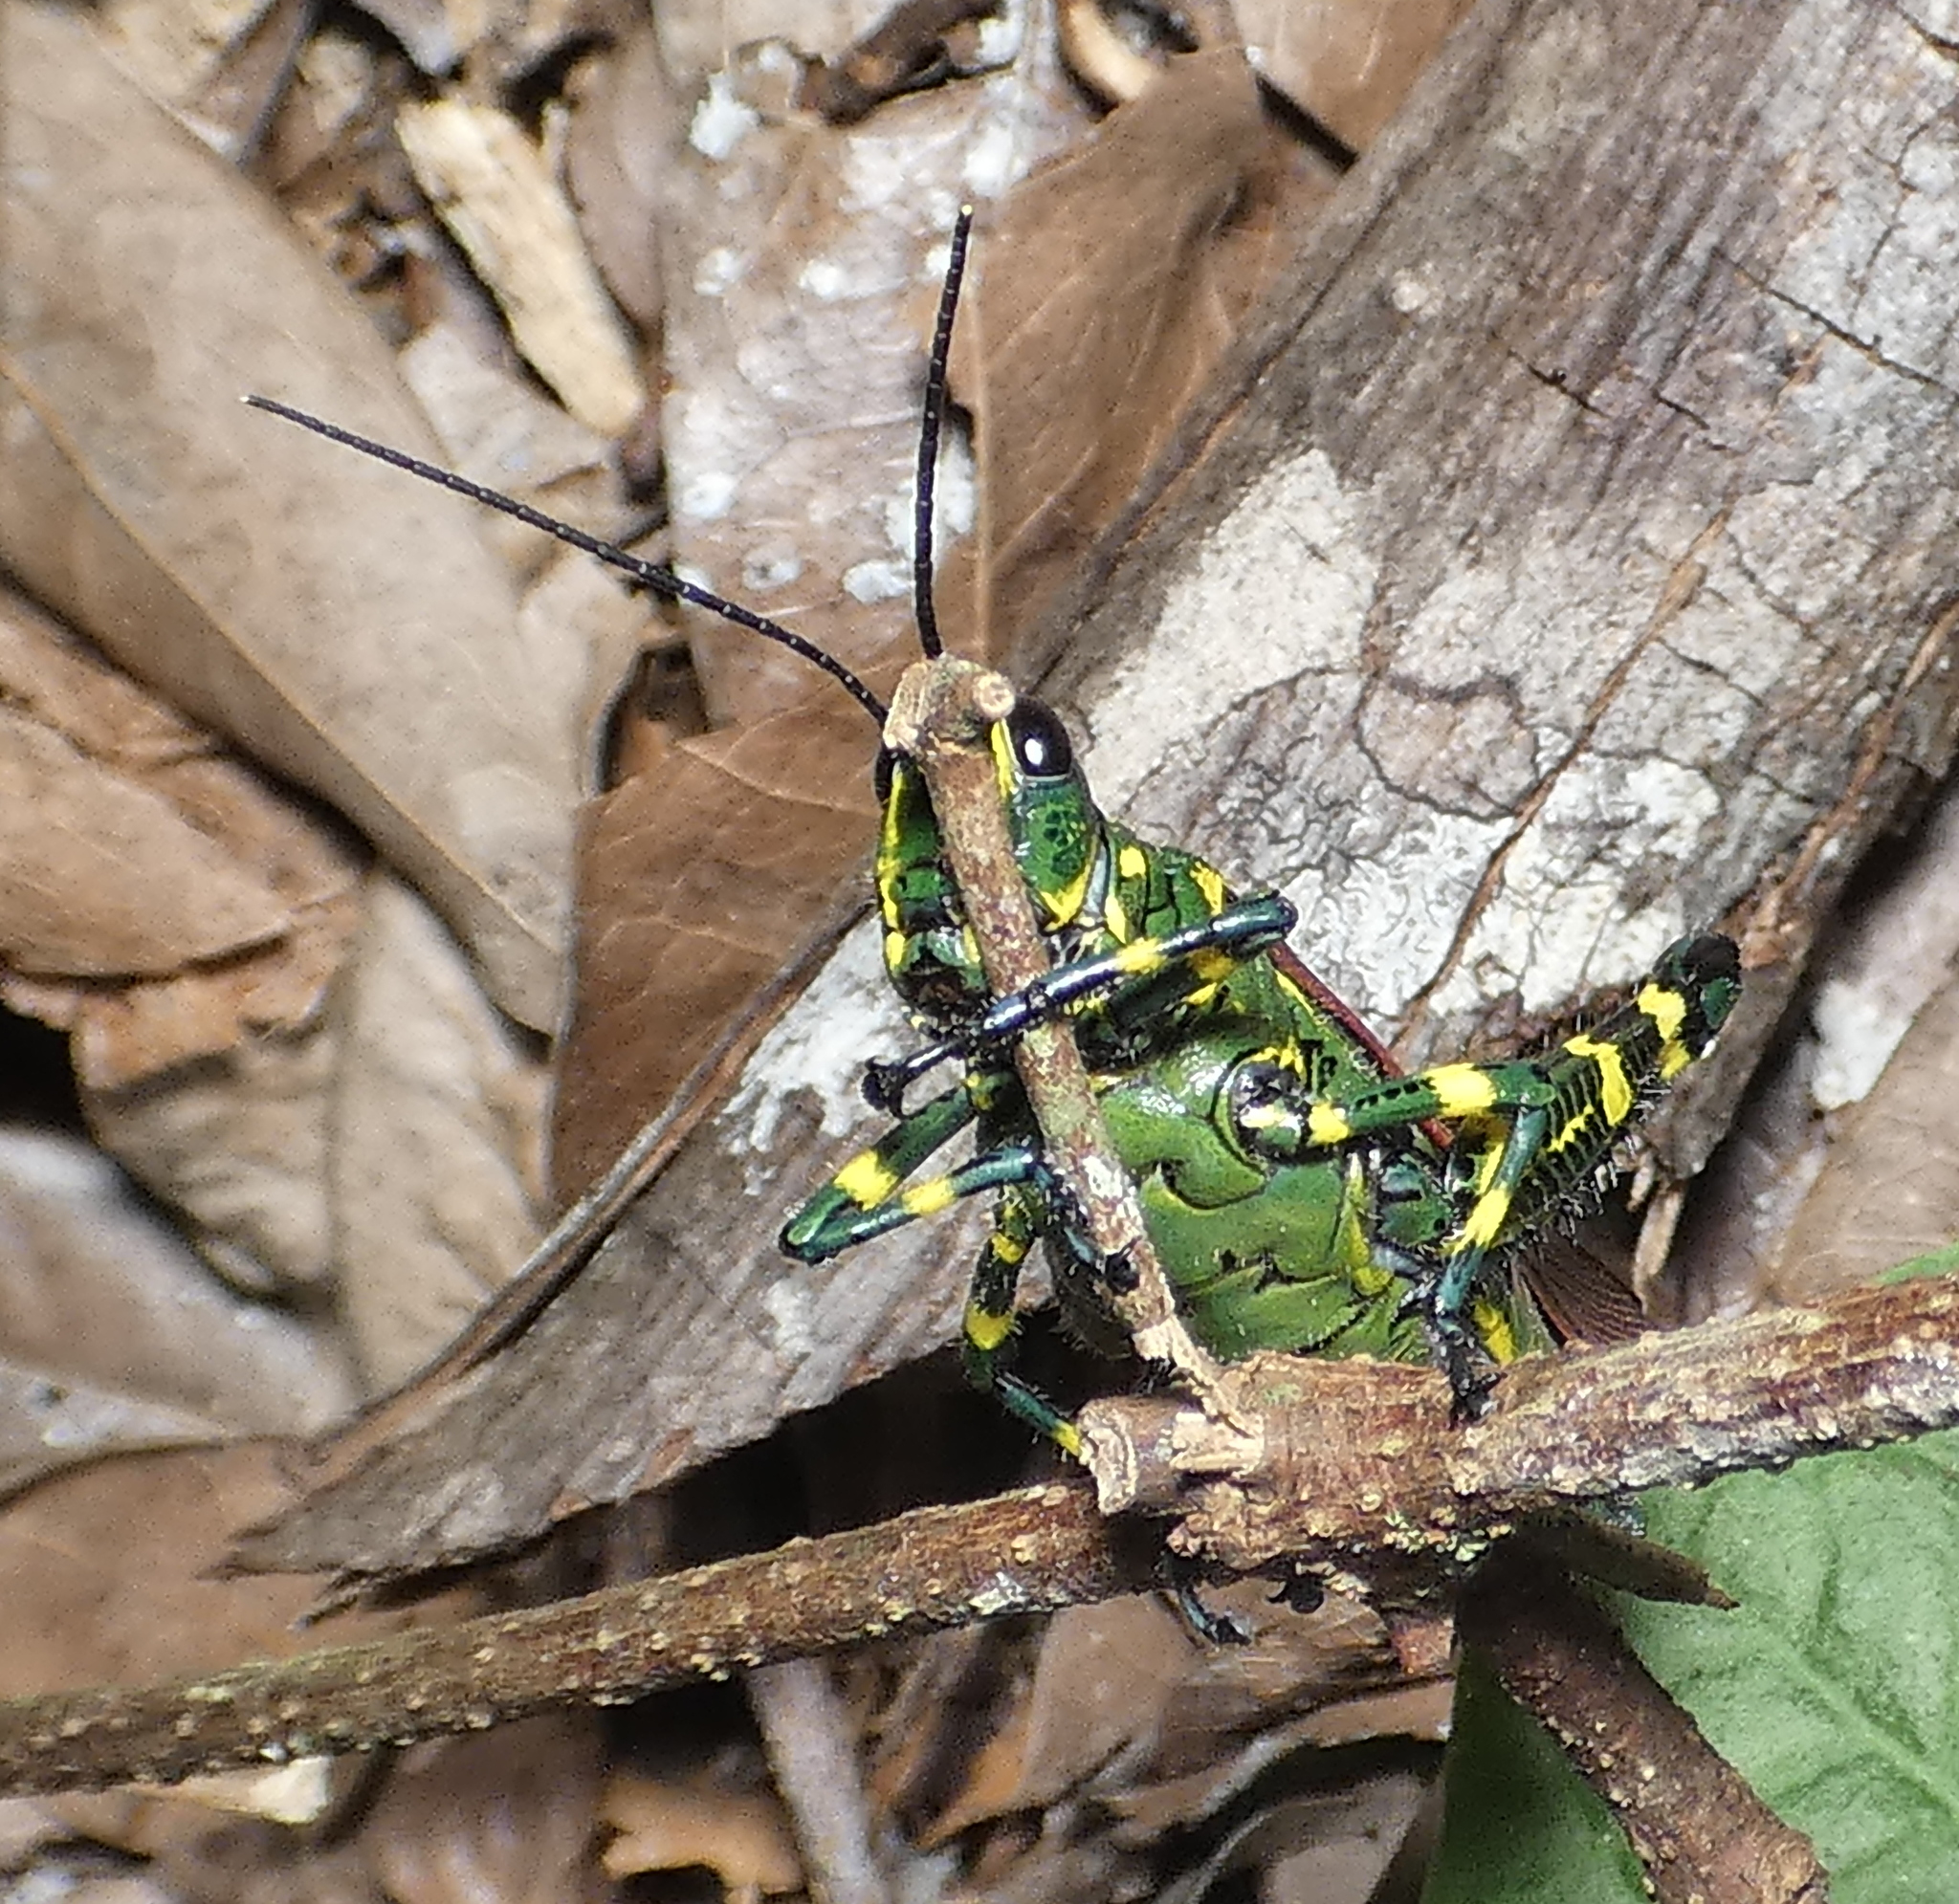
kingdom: Animalia
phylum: Arthropoda
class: Insecta
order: Orthoptera
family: Romaleidae
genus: Chromacris
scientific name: Chromacris speciosa
